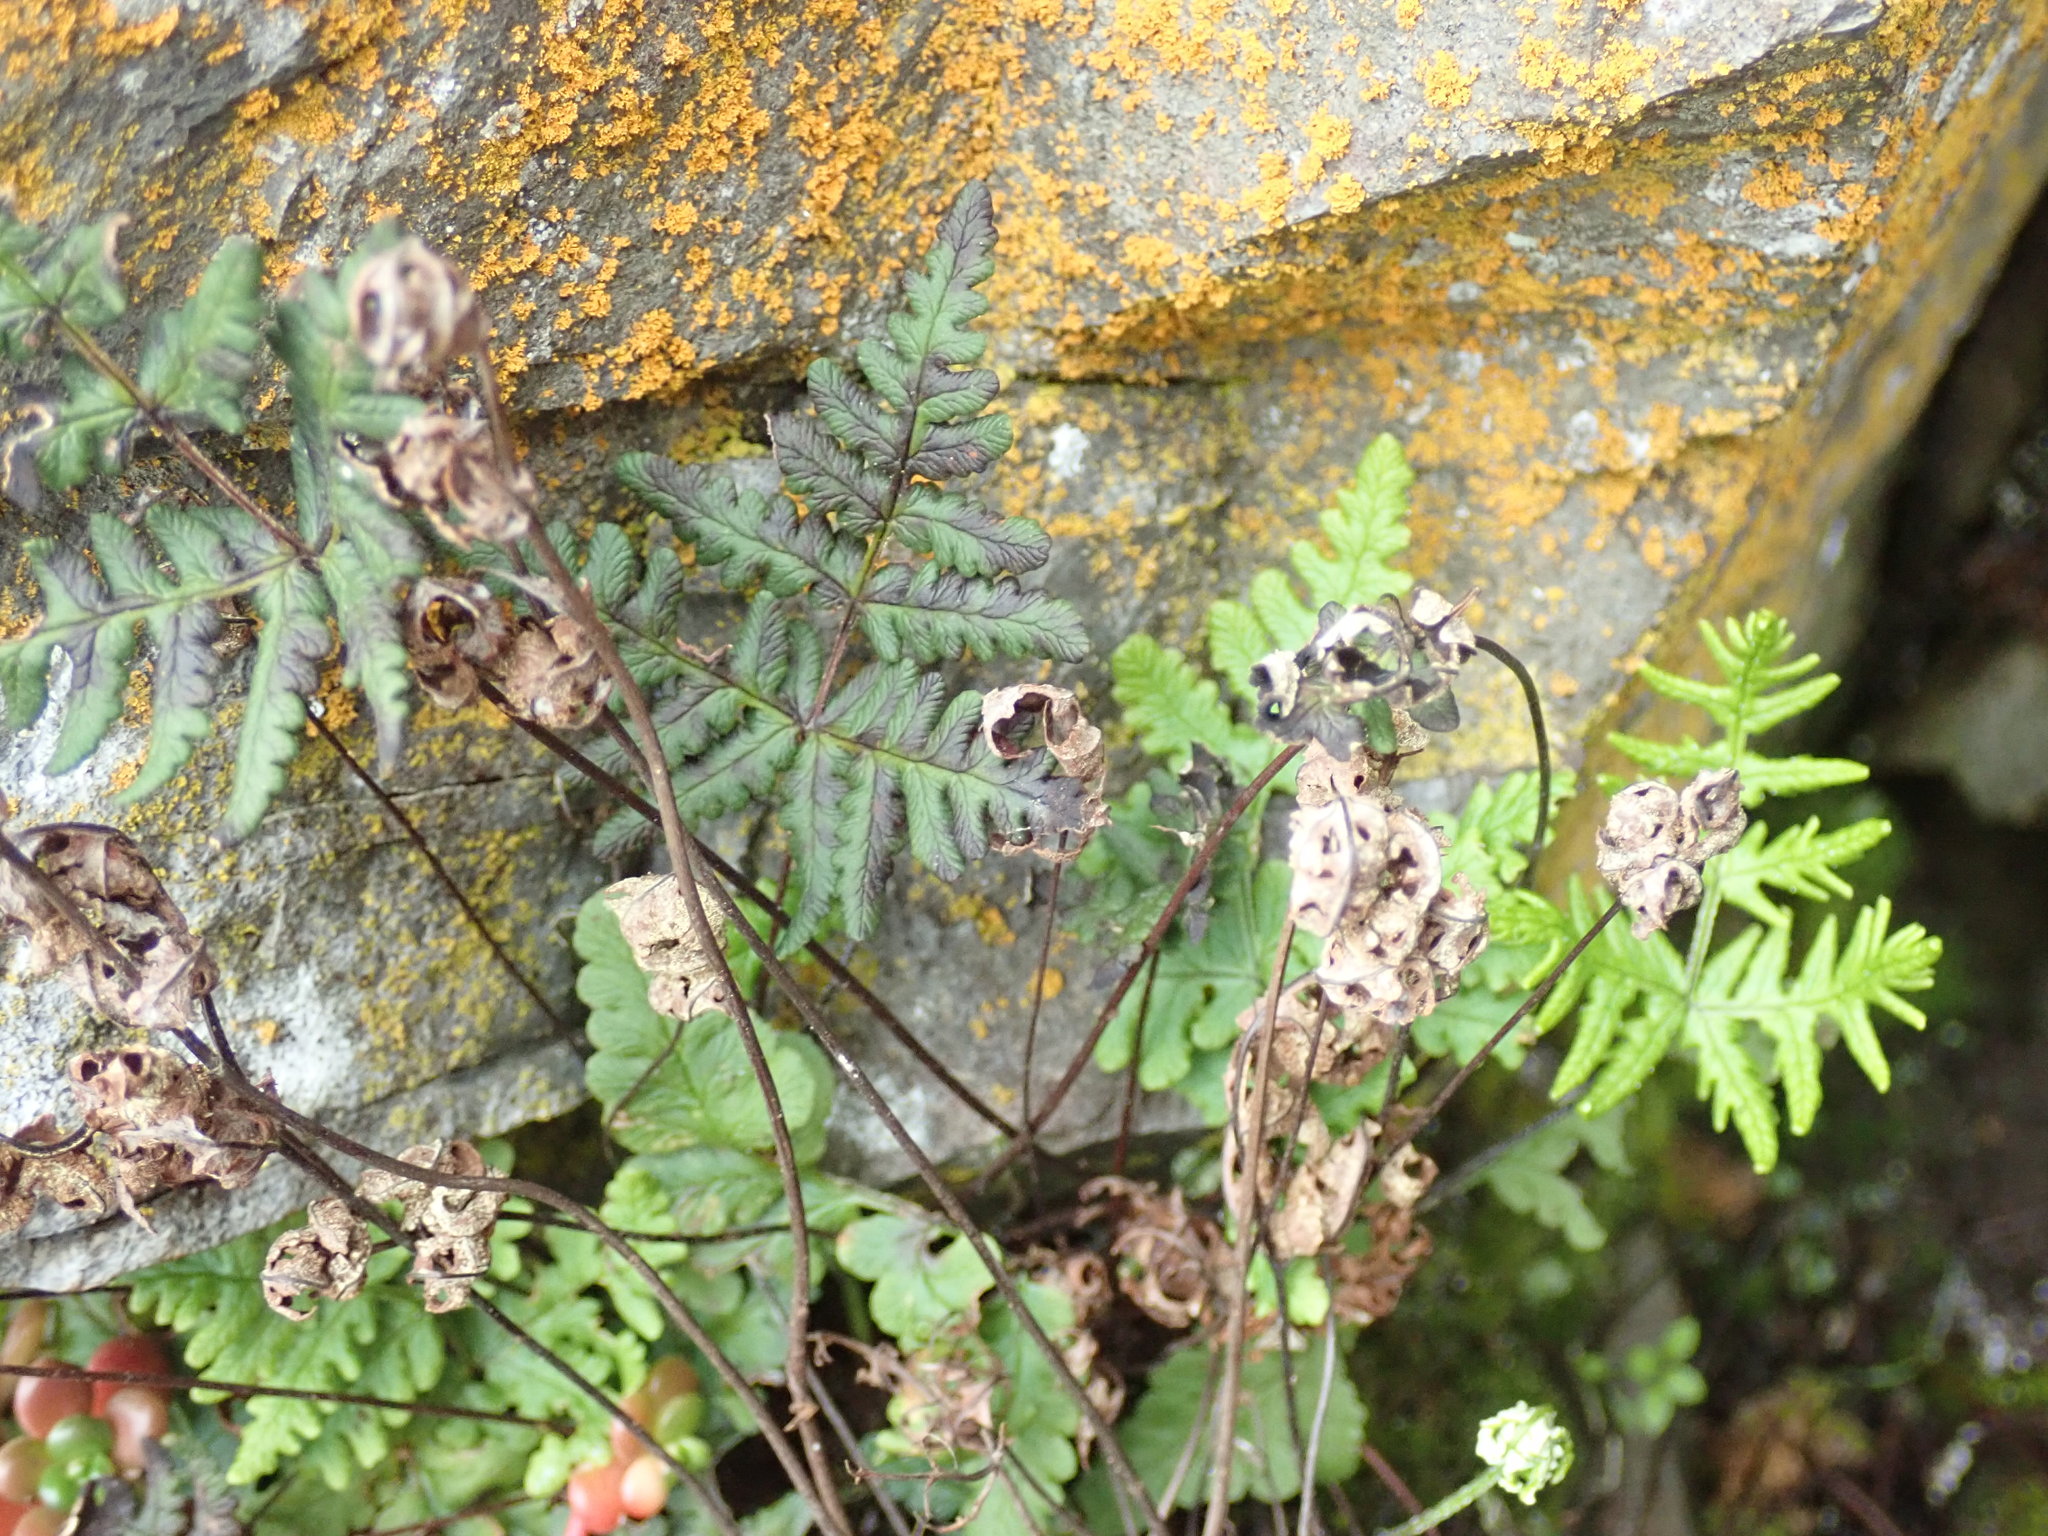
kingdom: Plantae
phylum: Tracheophyta
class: Polypodiopsida
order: Polypodiales
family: Pteridaceae
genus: Pentagramma
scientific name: Pentagramma triangularis
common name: Gold fern
